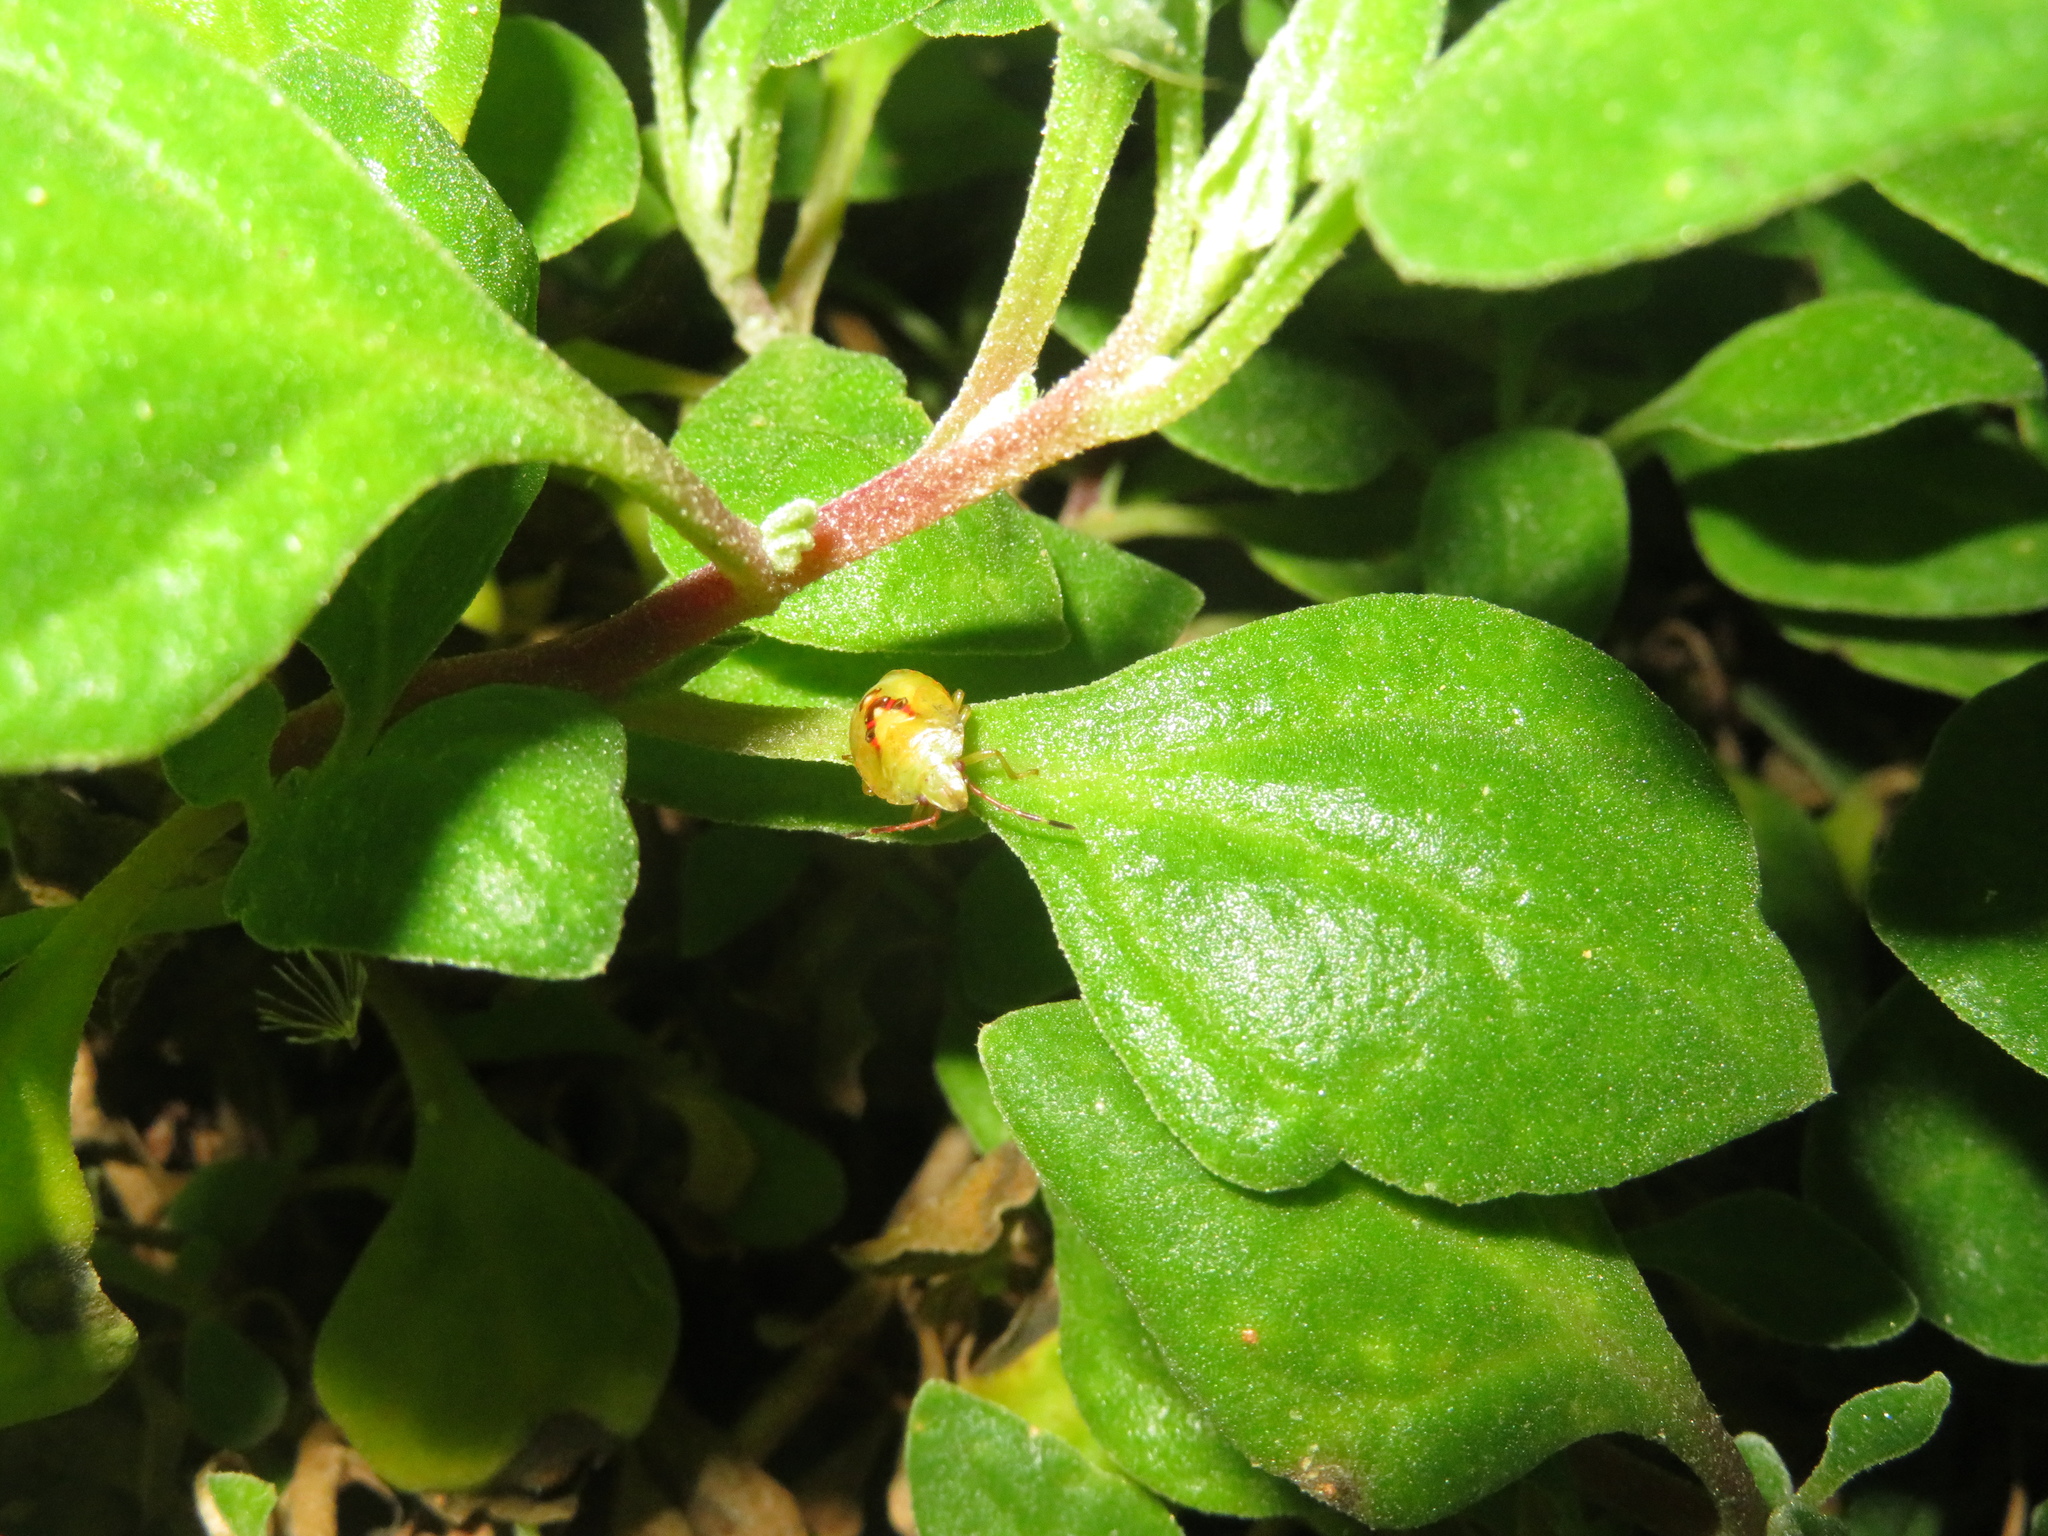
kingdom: Animalia
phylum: Arthropoda
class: Insecta
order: Hemiptera
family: Acanthosomatidae
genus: Oncacontias
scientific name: Oncacontias vittatus
